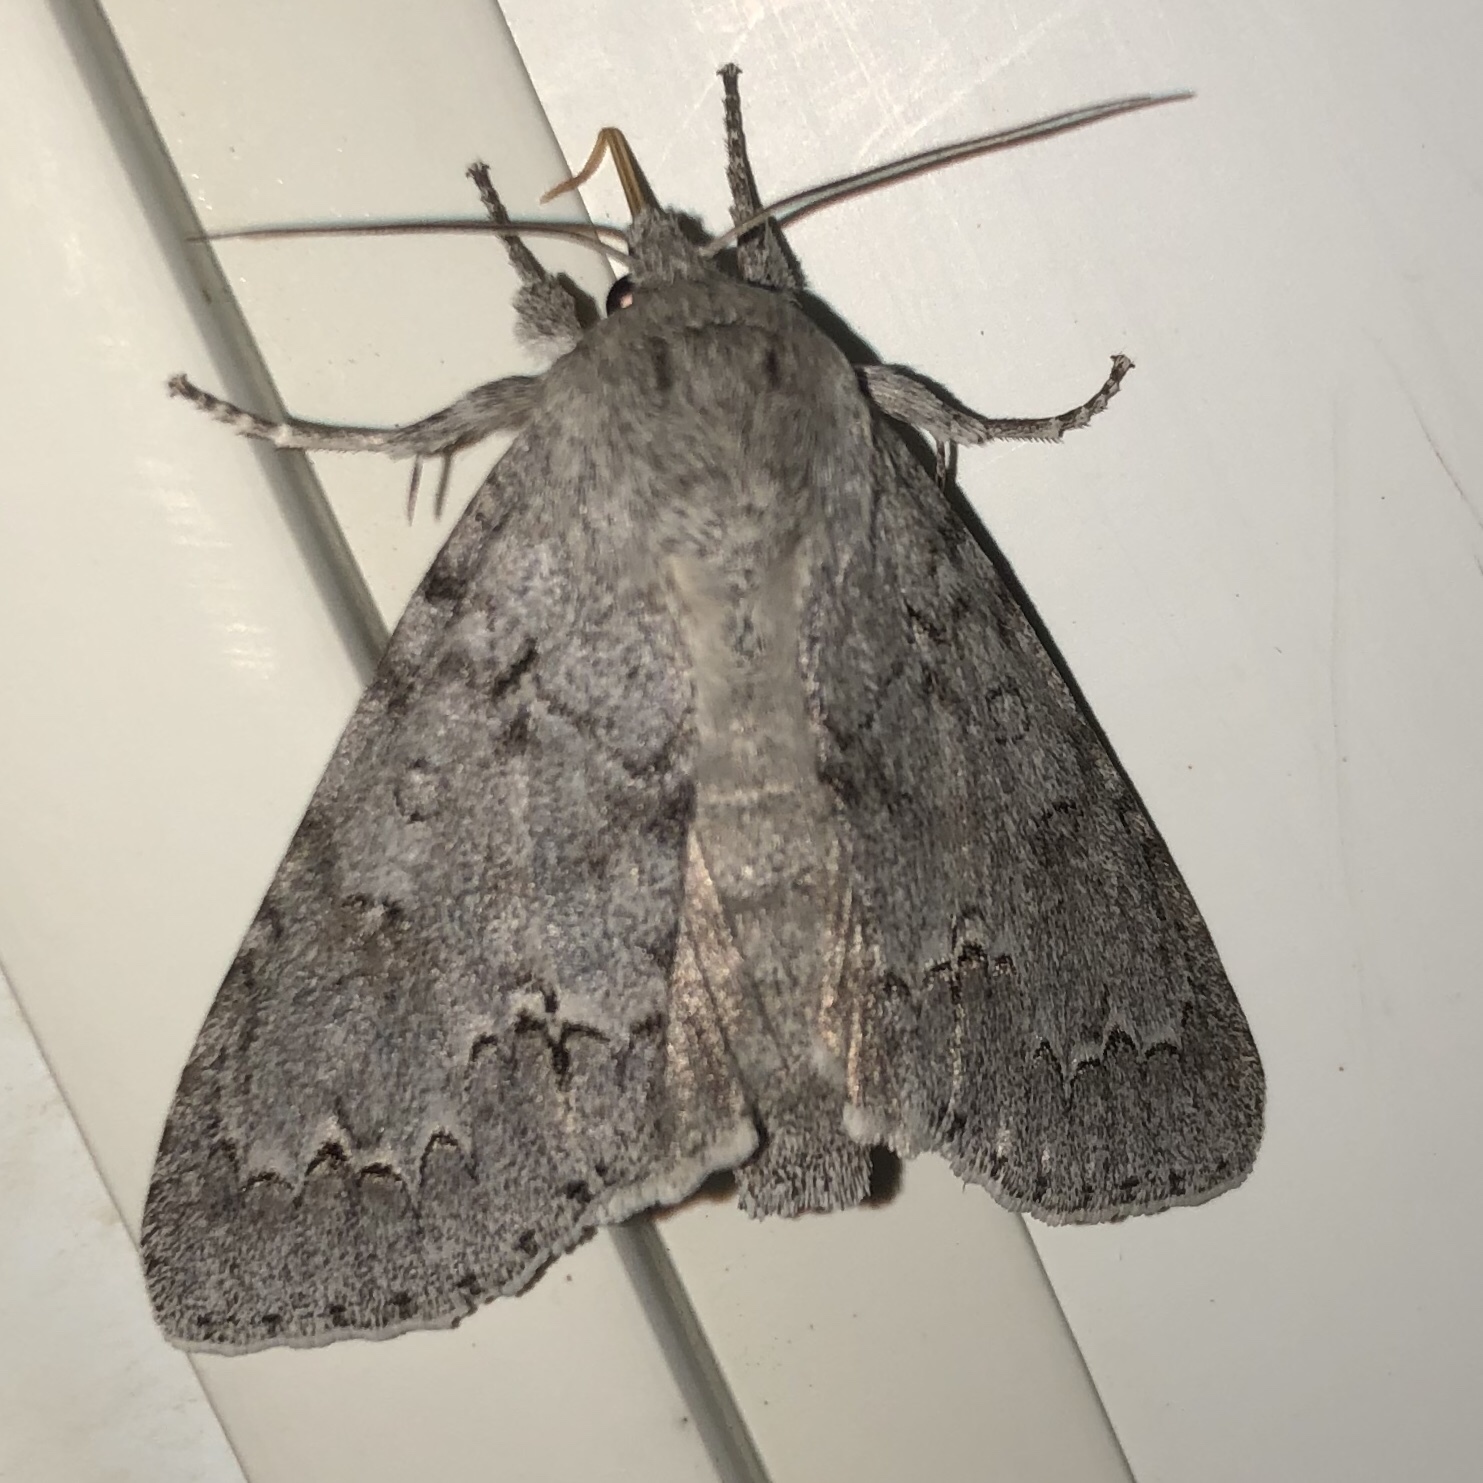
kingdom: Animalia
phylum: Arthropoda
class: Insecta
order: Lepidoptera
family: Noctuidae
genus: Acronicta
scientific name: Acronicta insita
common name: Large gray dagger
